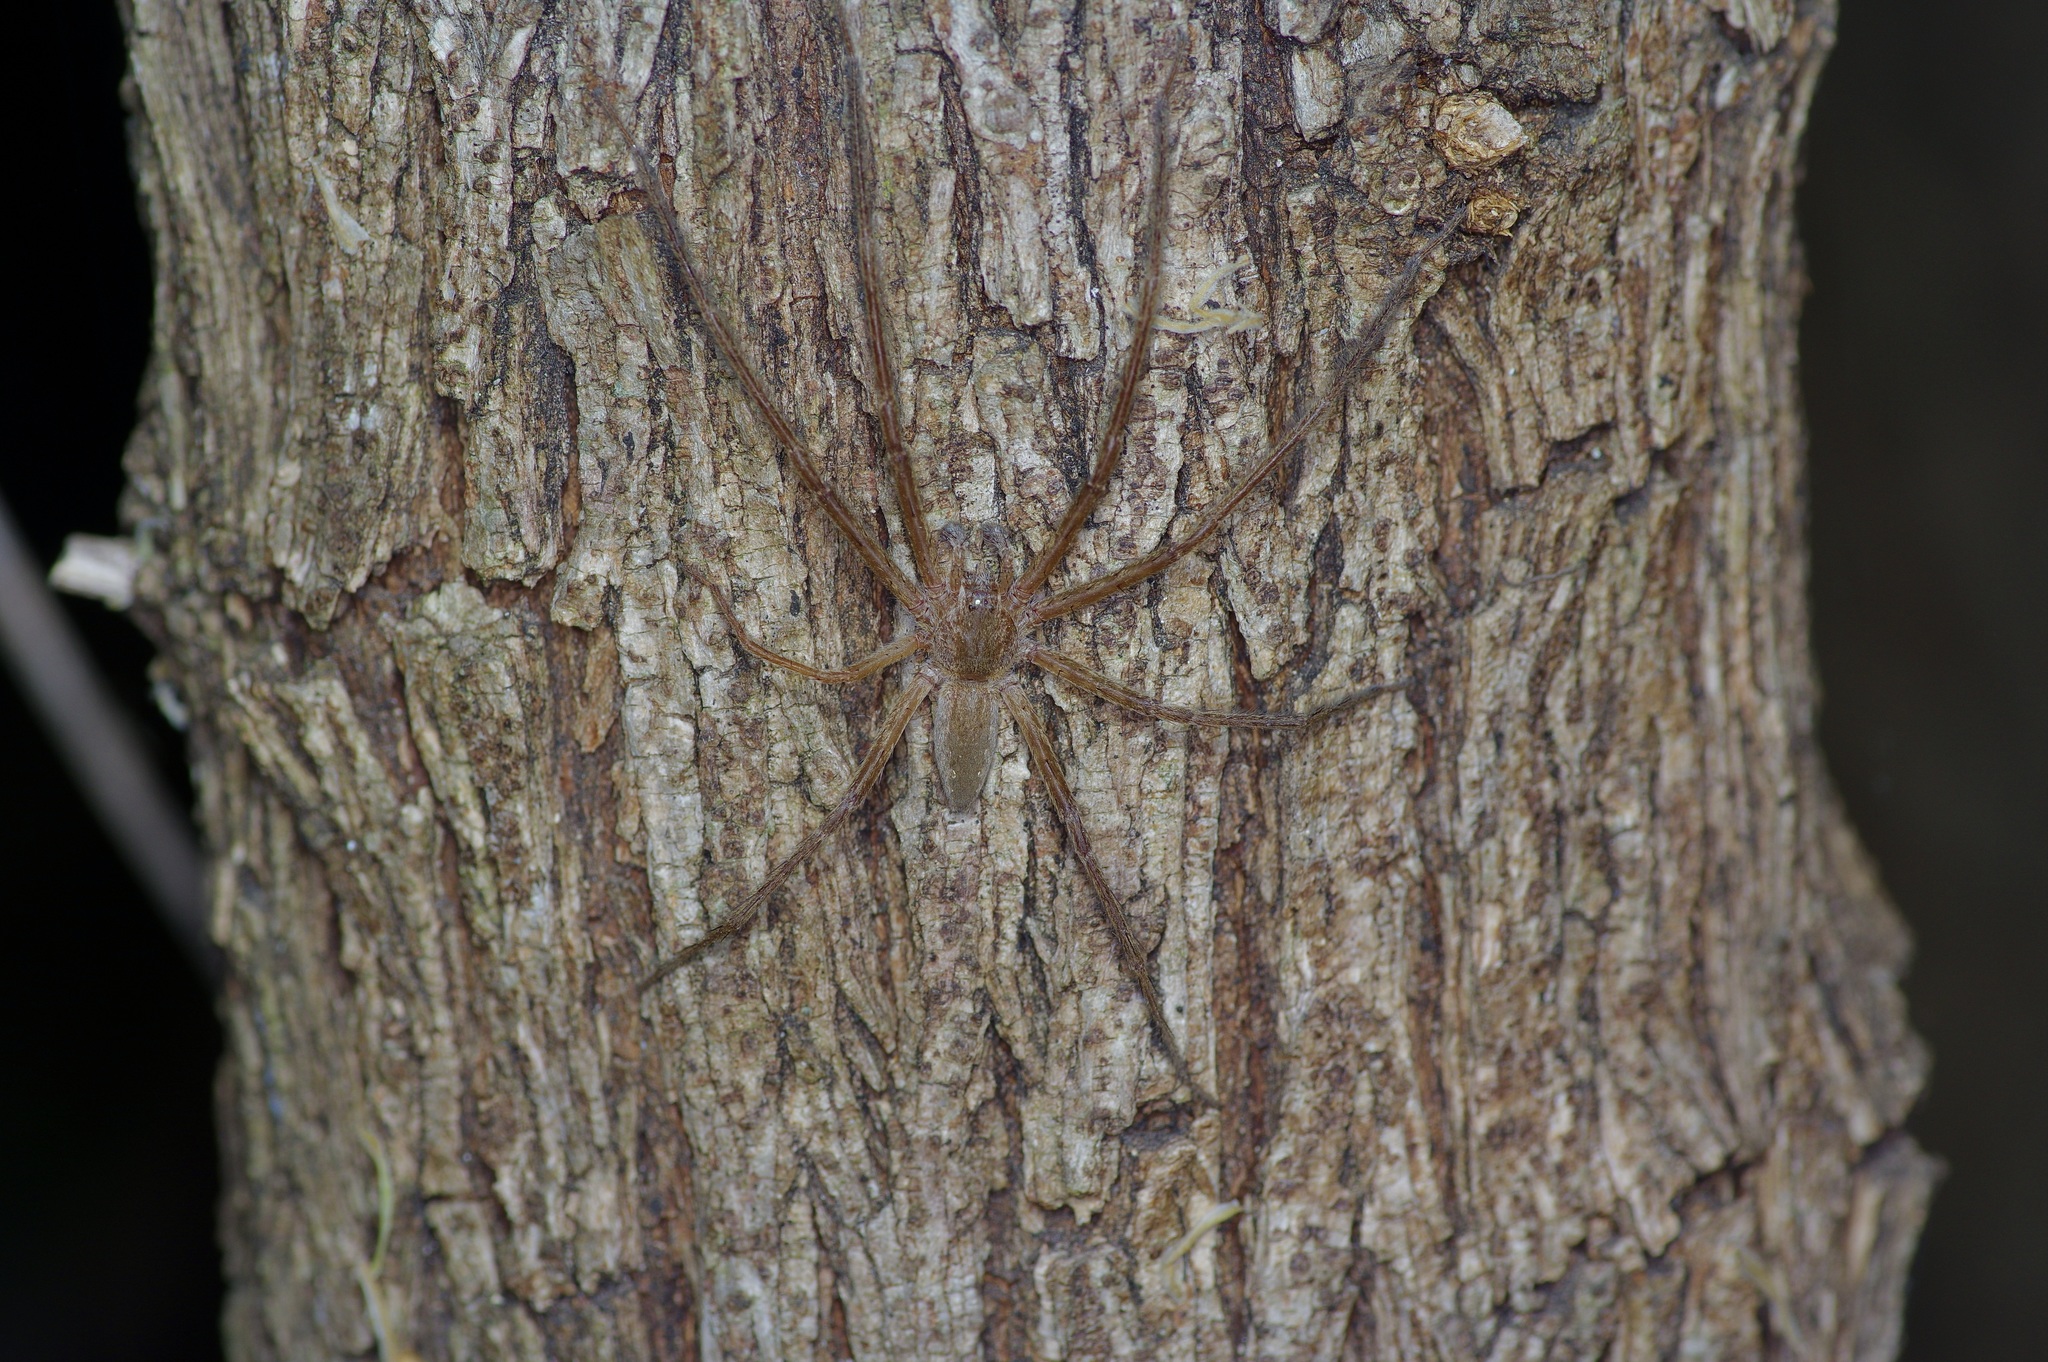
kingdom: Animalia
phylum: Arthropoda
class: Arachnida
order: Araneae
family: Pisauridae
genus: Pisaurina
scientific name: Pisaurina mira
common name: American nursery web spider
